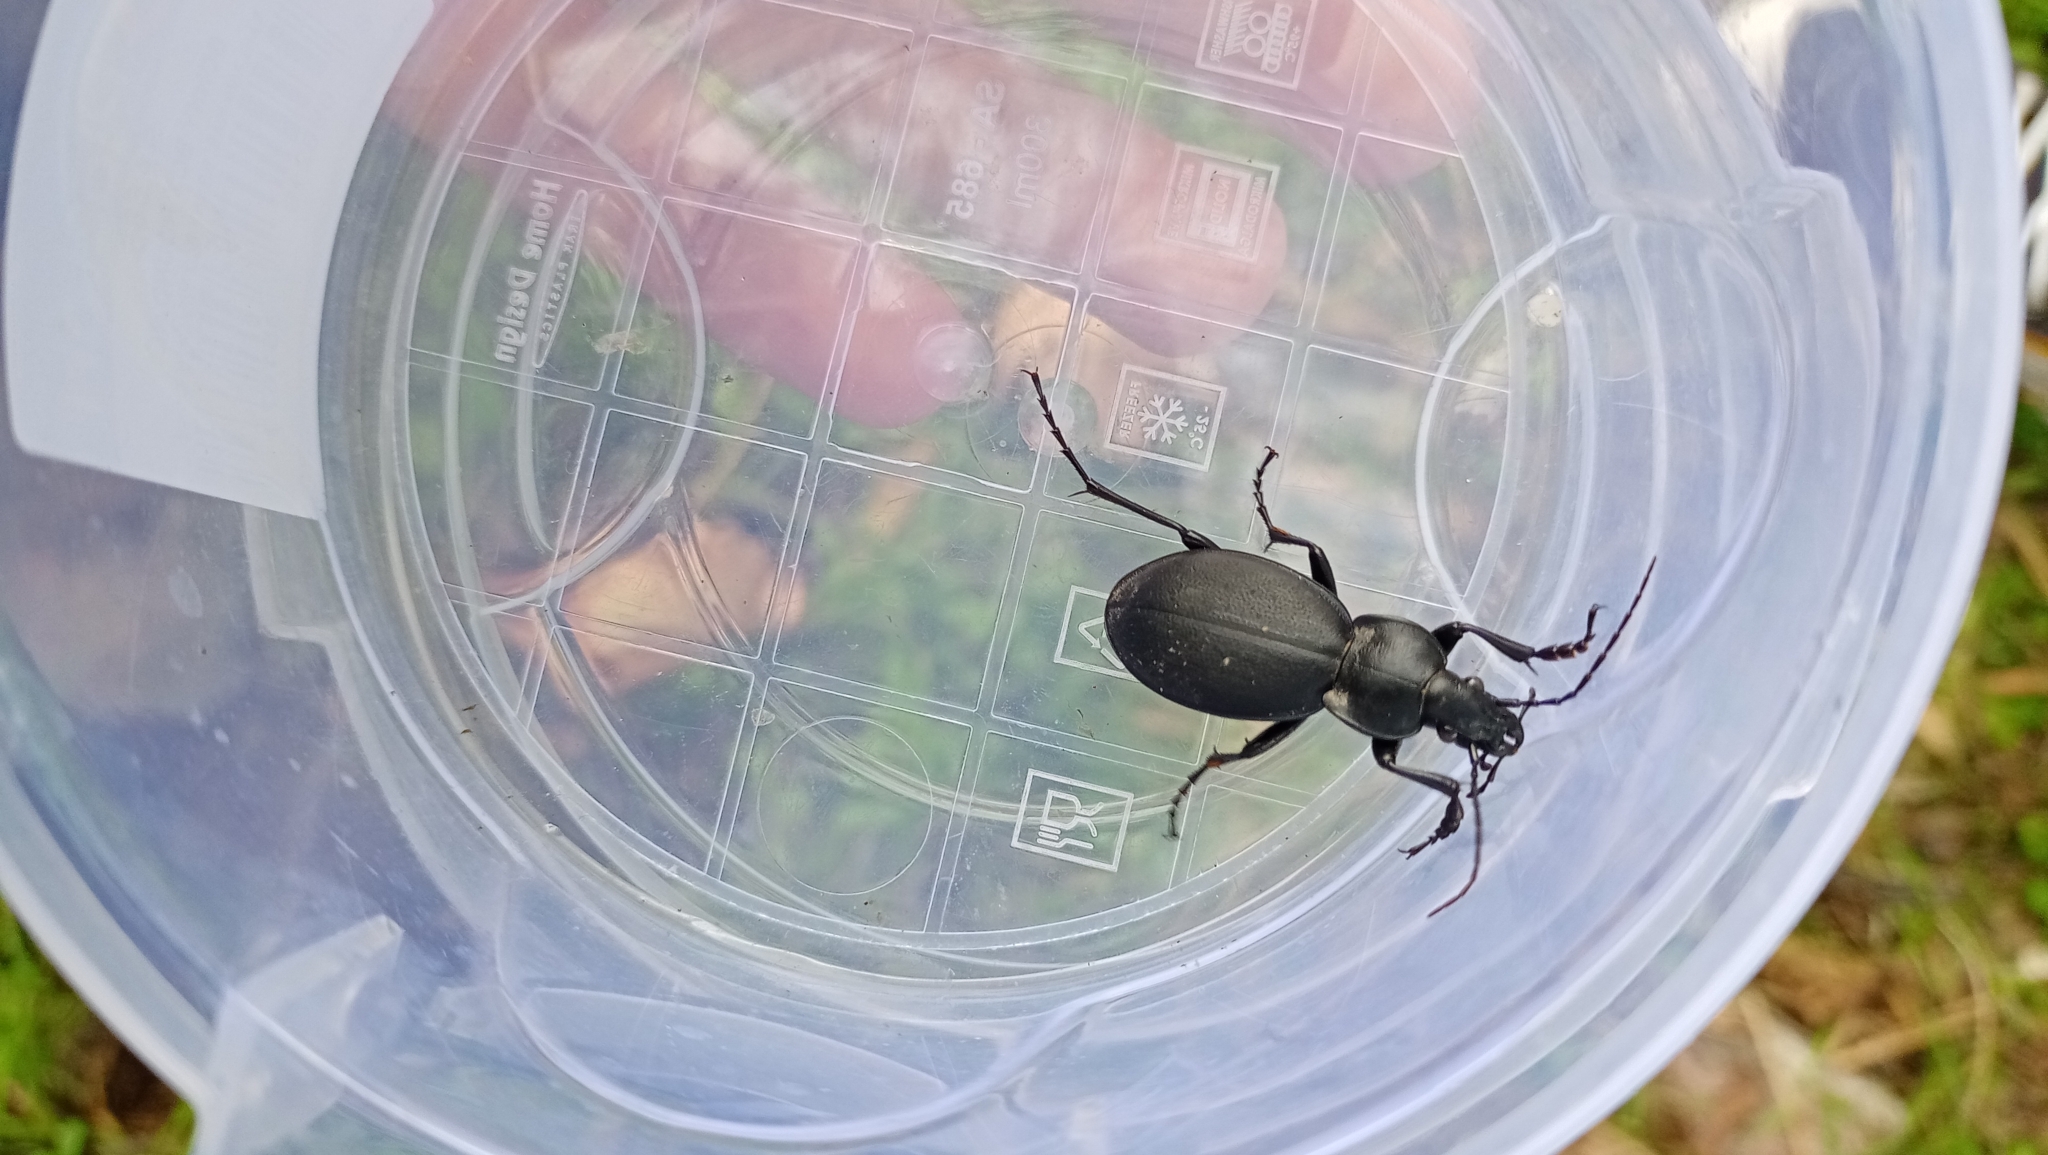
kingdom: Animalia
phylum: Arthropoda
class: Insecta
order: Coleoptera
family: Carabidae
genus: Carabus
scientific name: Carabus coriaceus
